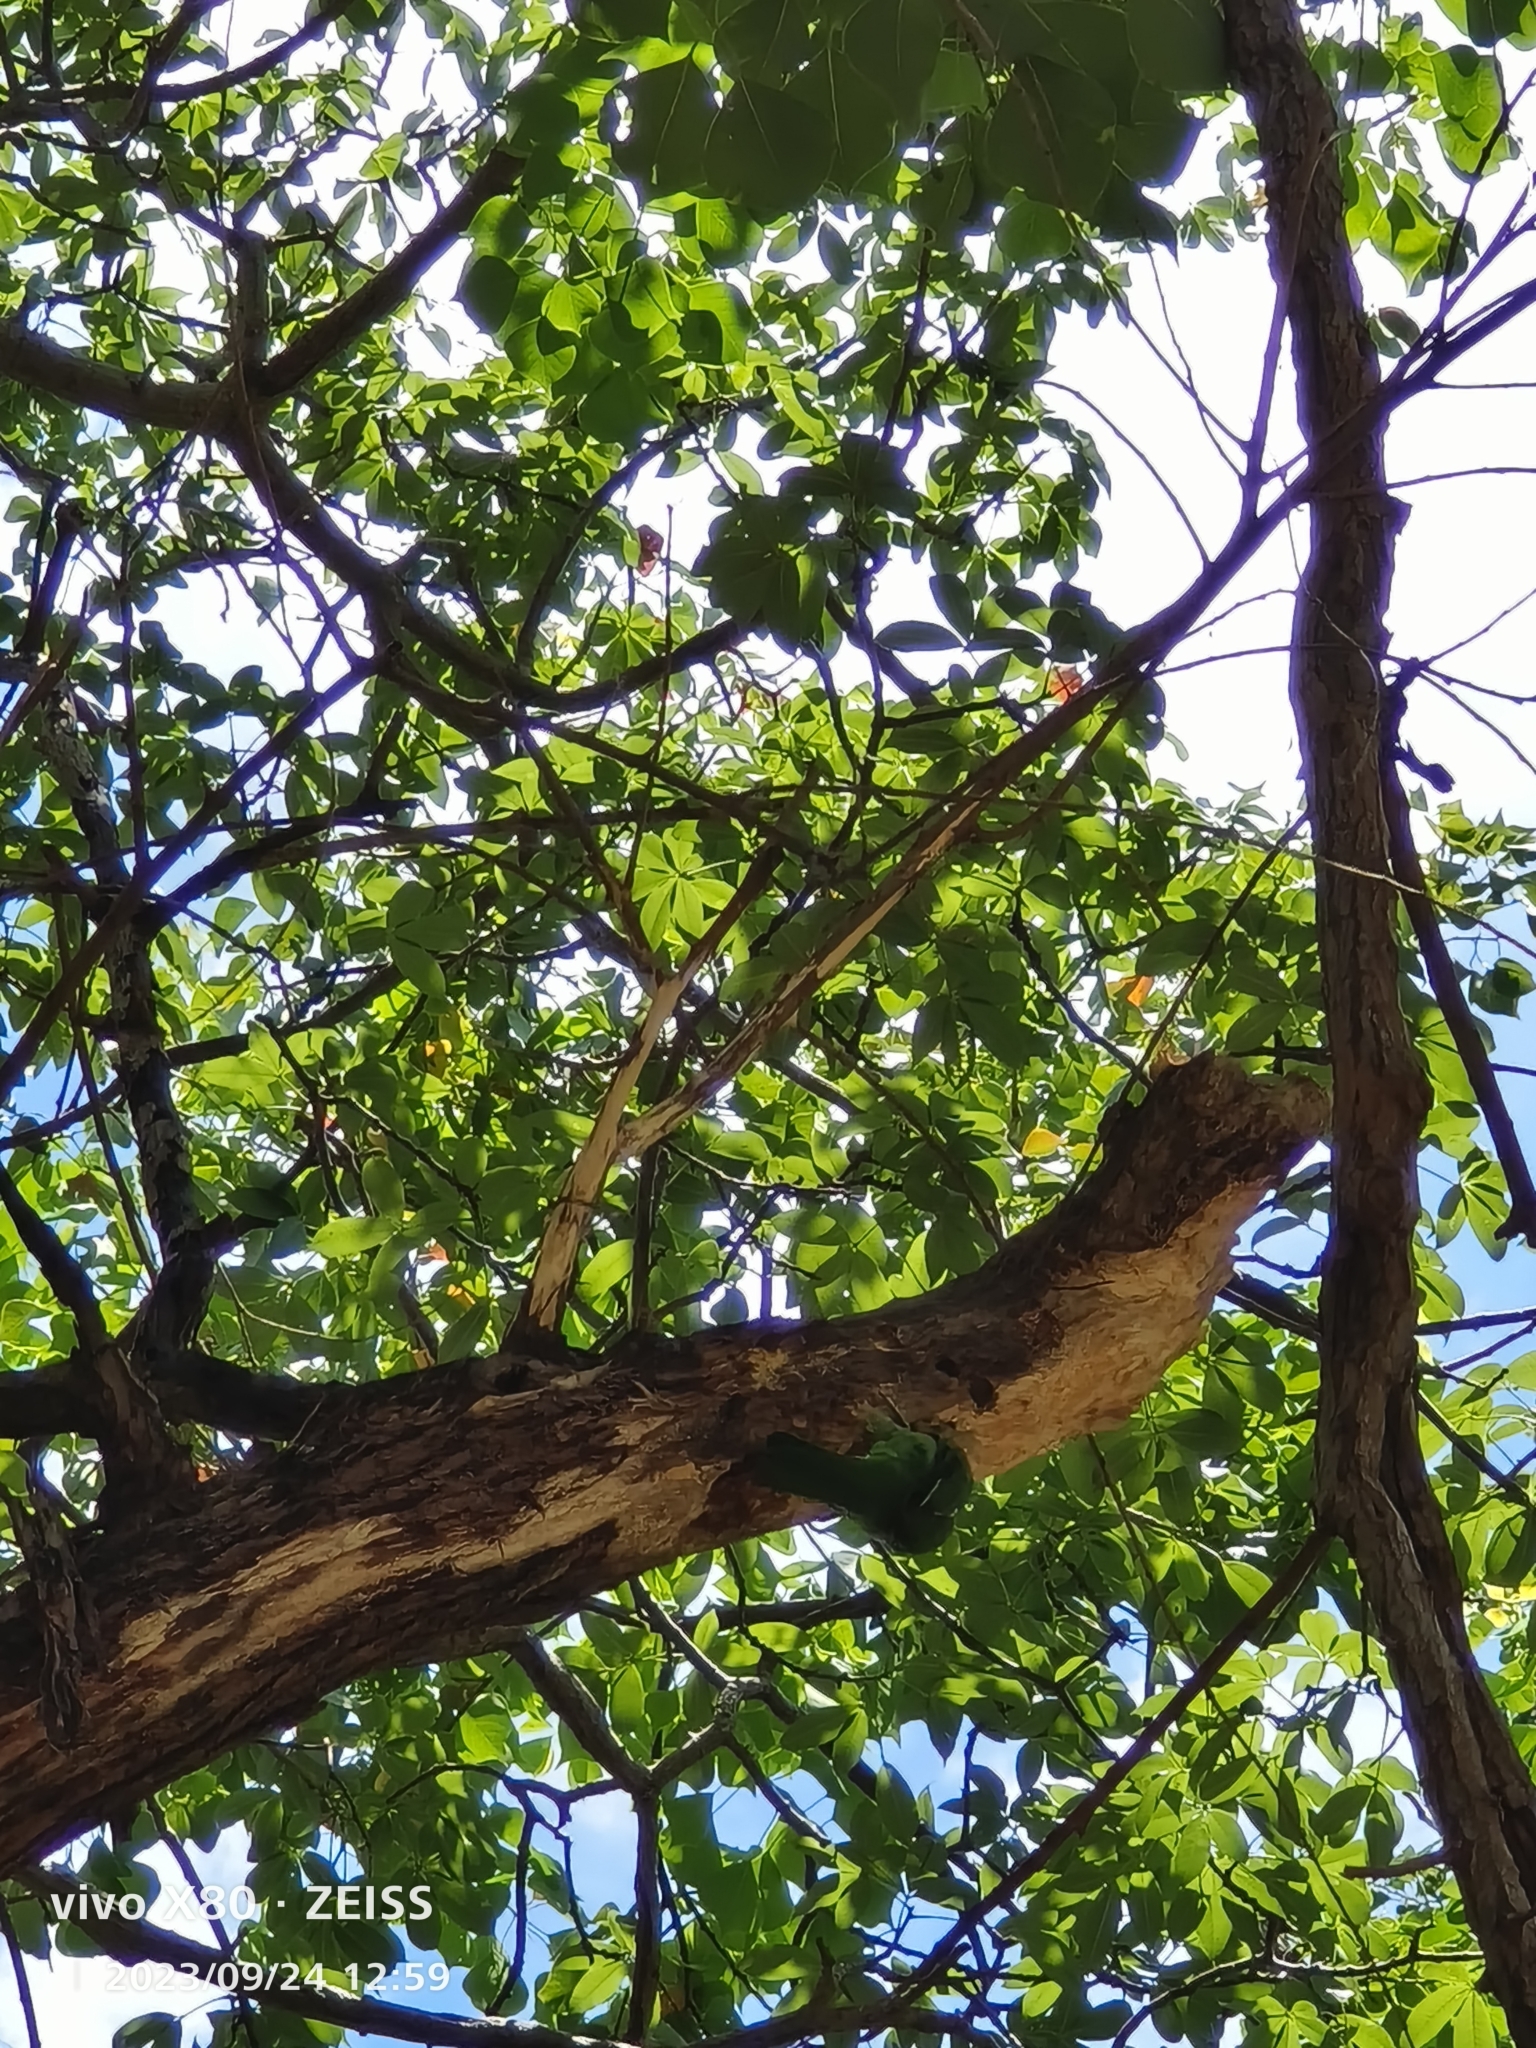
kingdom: Animalia
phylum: Chordata
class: Aves
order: Piciformes
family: Megalaimidae
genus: Psilopogon
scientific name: Psilopogon nuchalis
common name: Taiwan barbet
